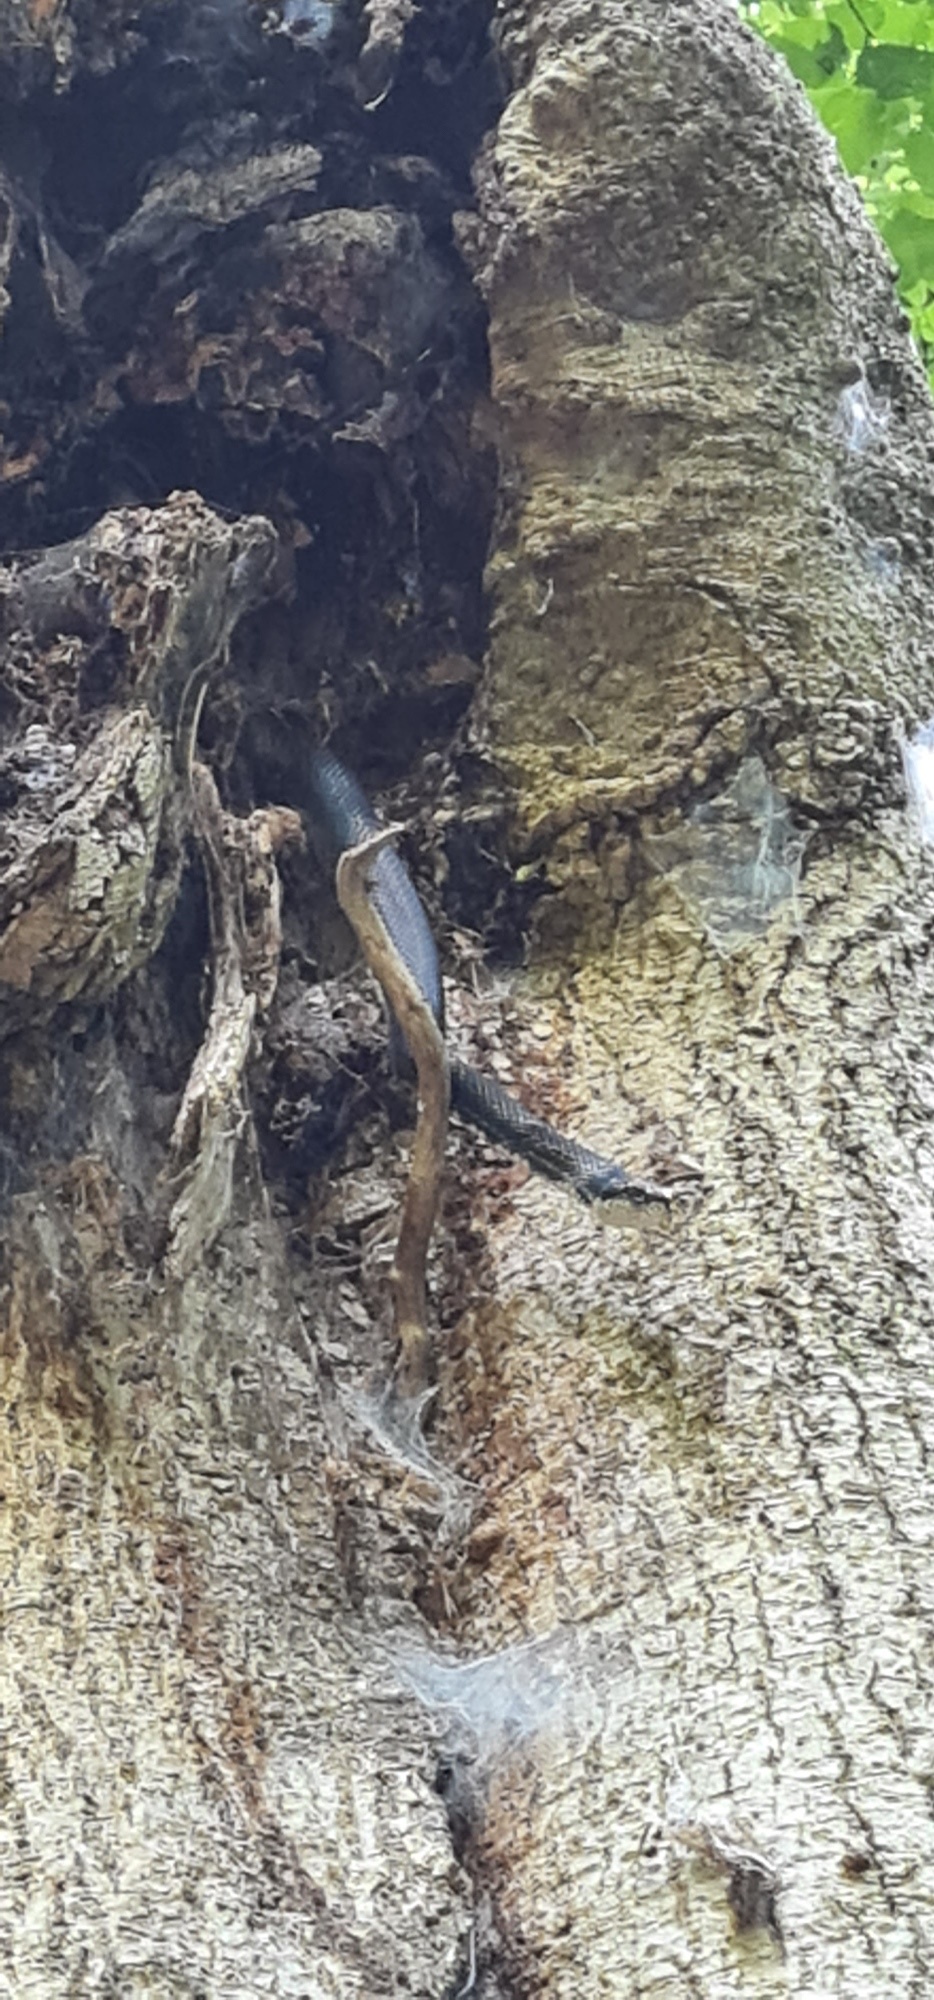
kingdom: Animalia
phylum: Chordata
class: Squamata
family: Colubridae
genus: Pantherophis
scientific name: Pantherophis alleghaniensis
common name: Eastern rat snake
